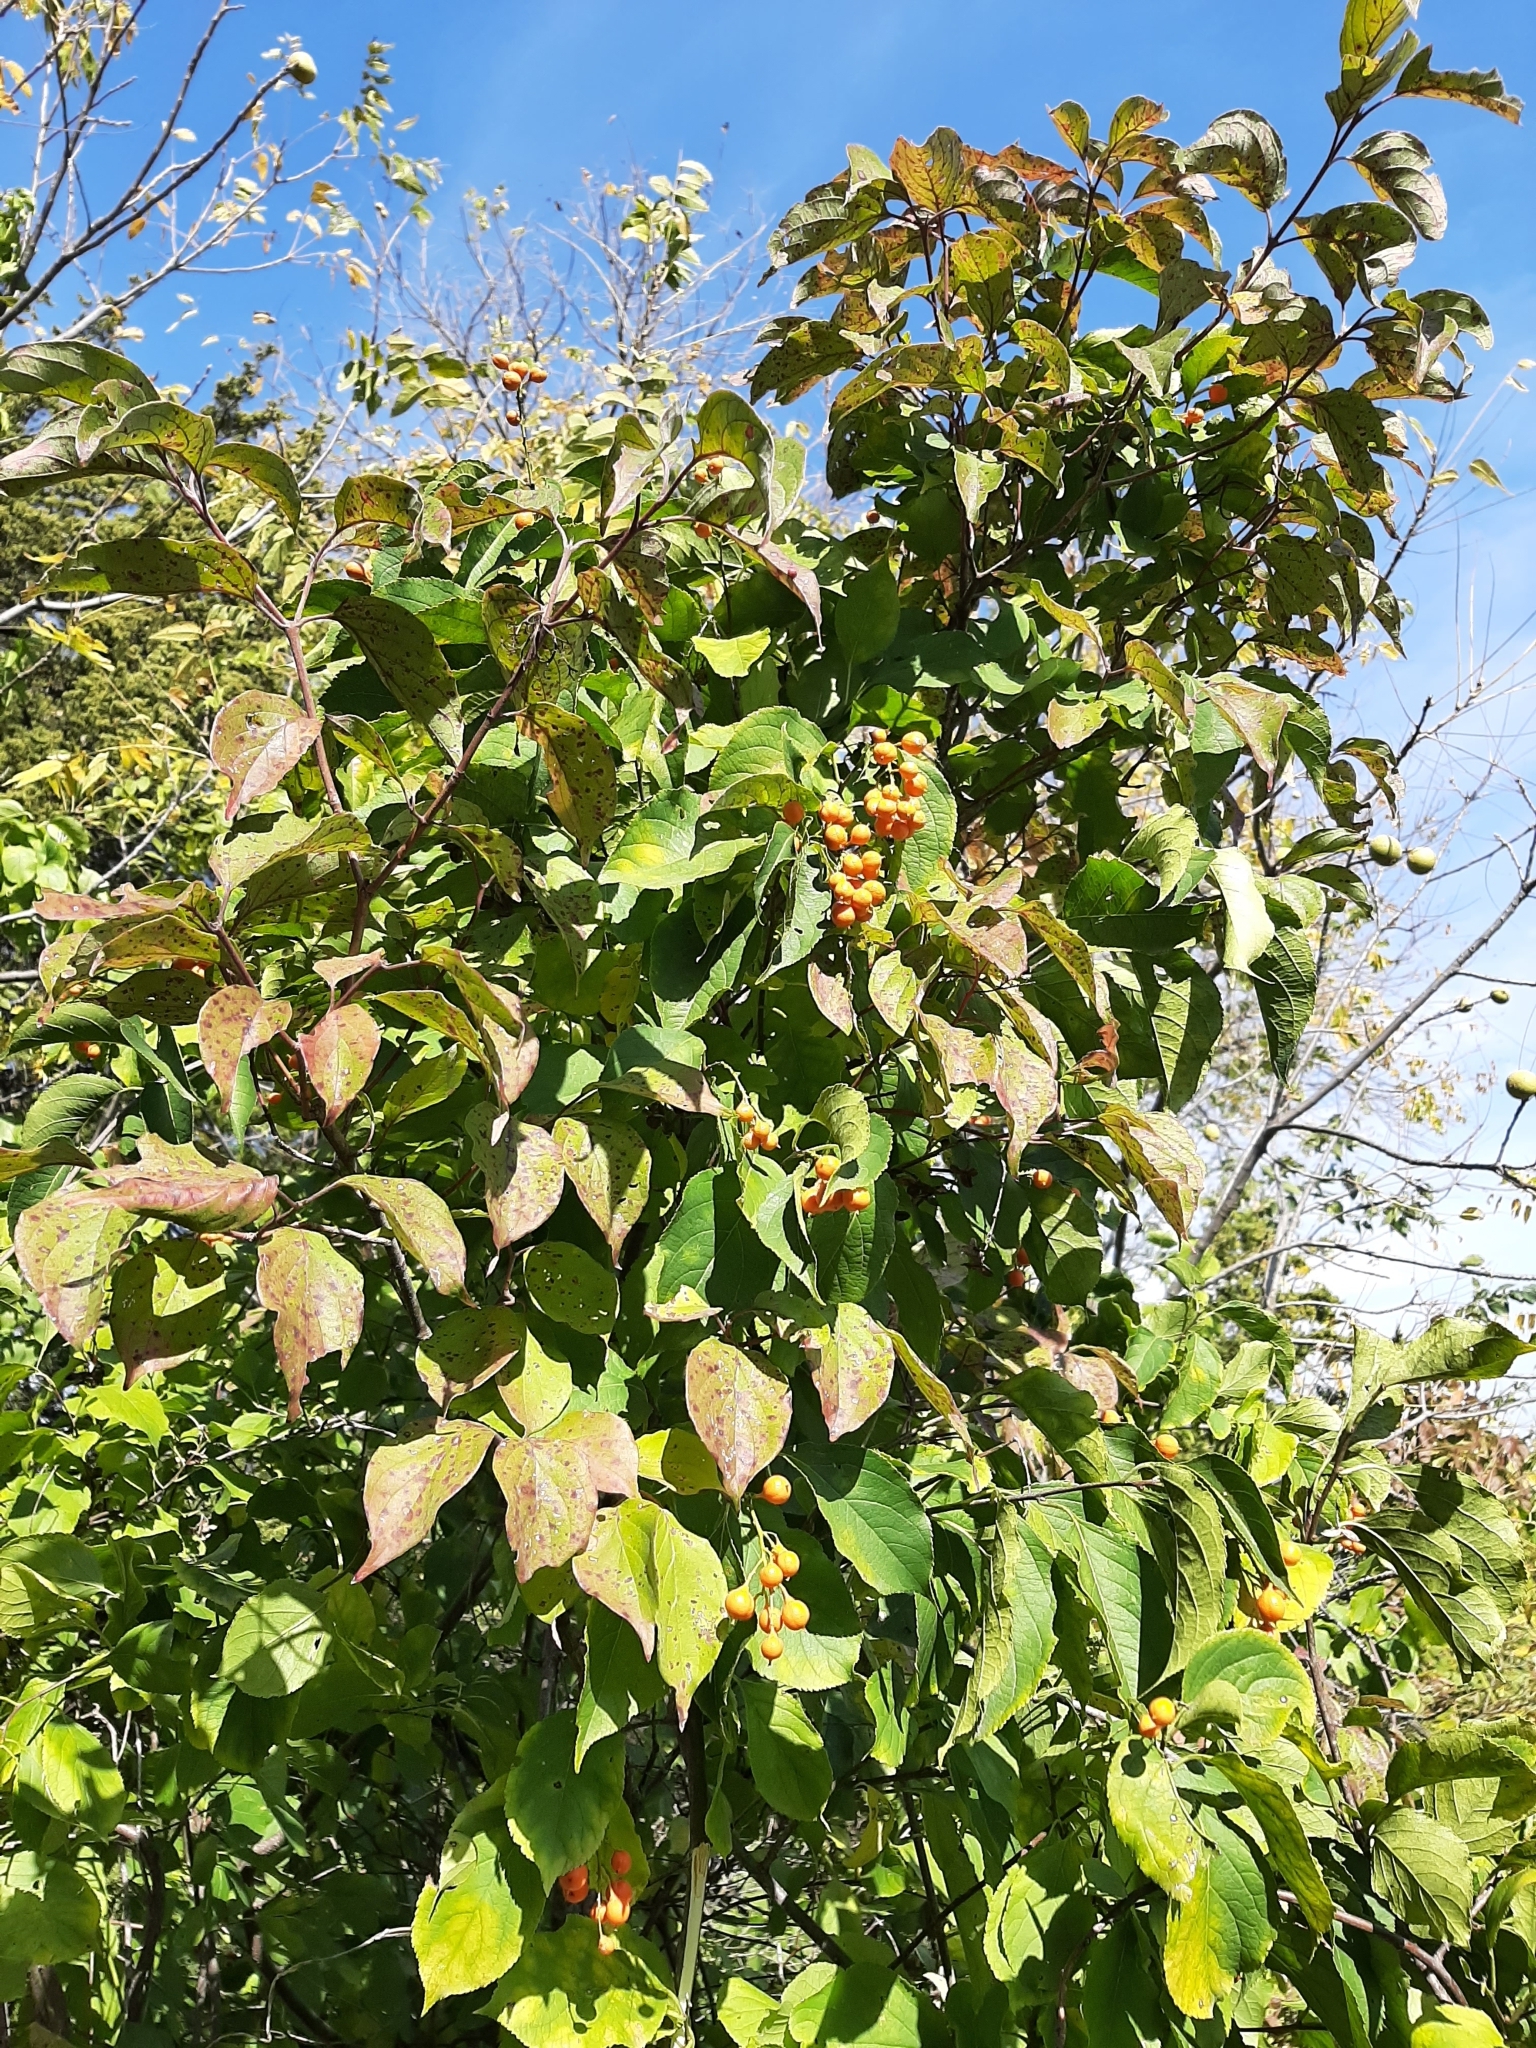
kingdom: Plantae
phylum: Tracheophyta
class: Magnoliopsida
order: Celastrales
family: Celastraceae
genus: Celastrus
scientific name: Celastrus scandens
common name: American bittersweet
